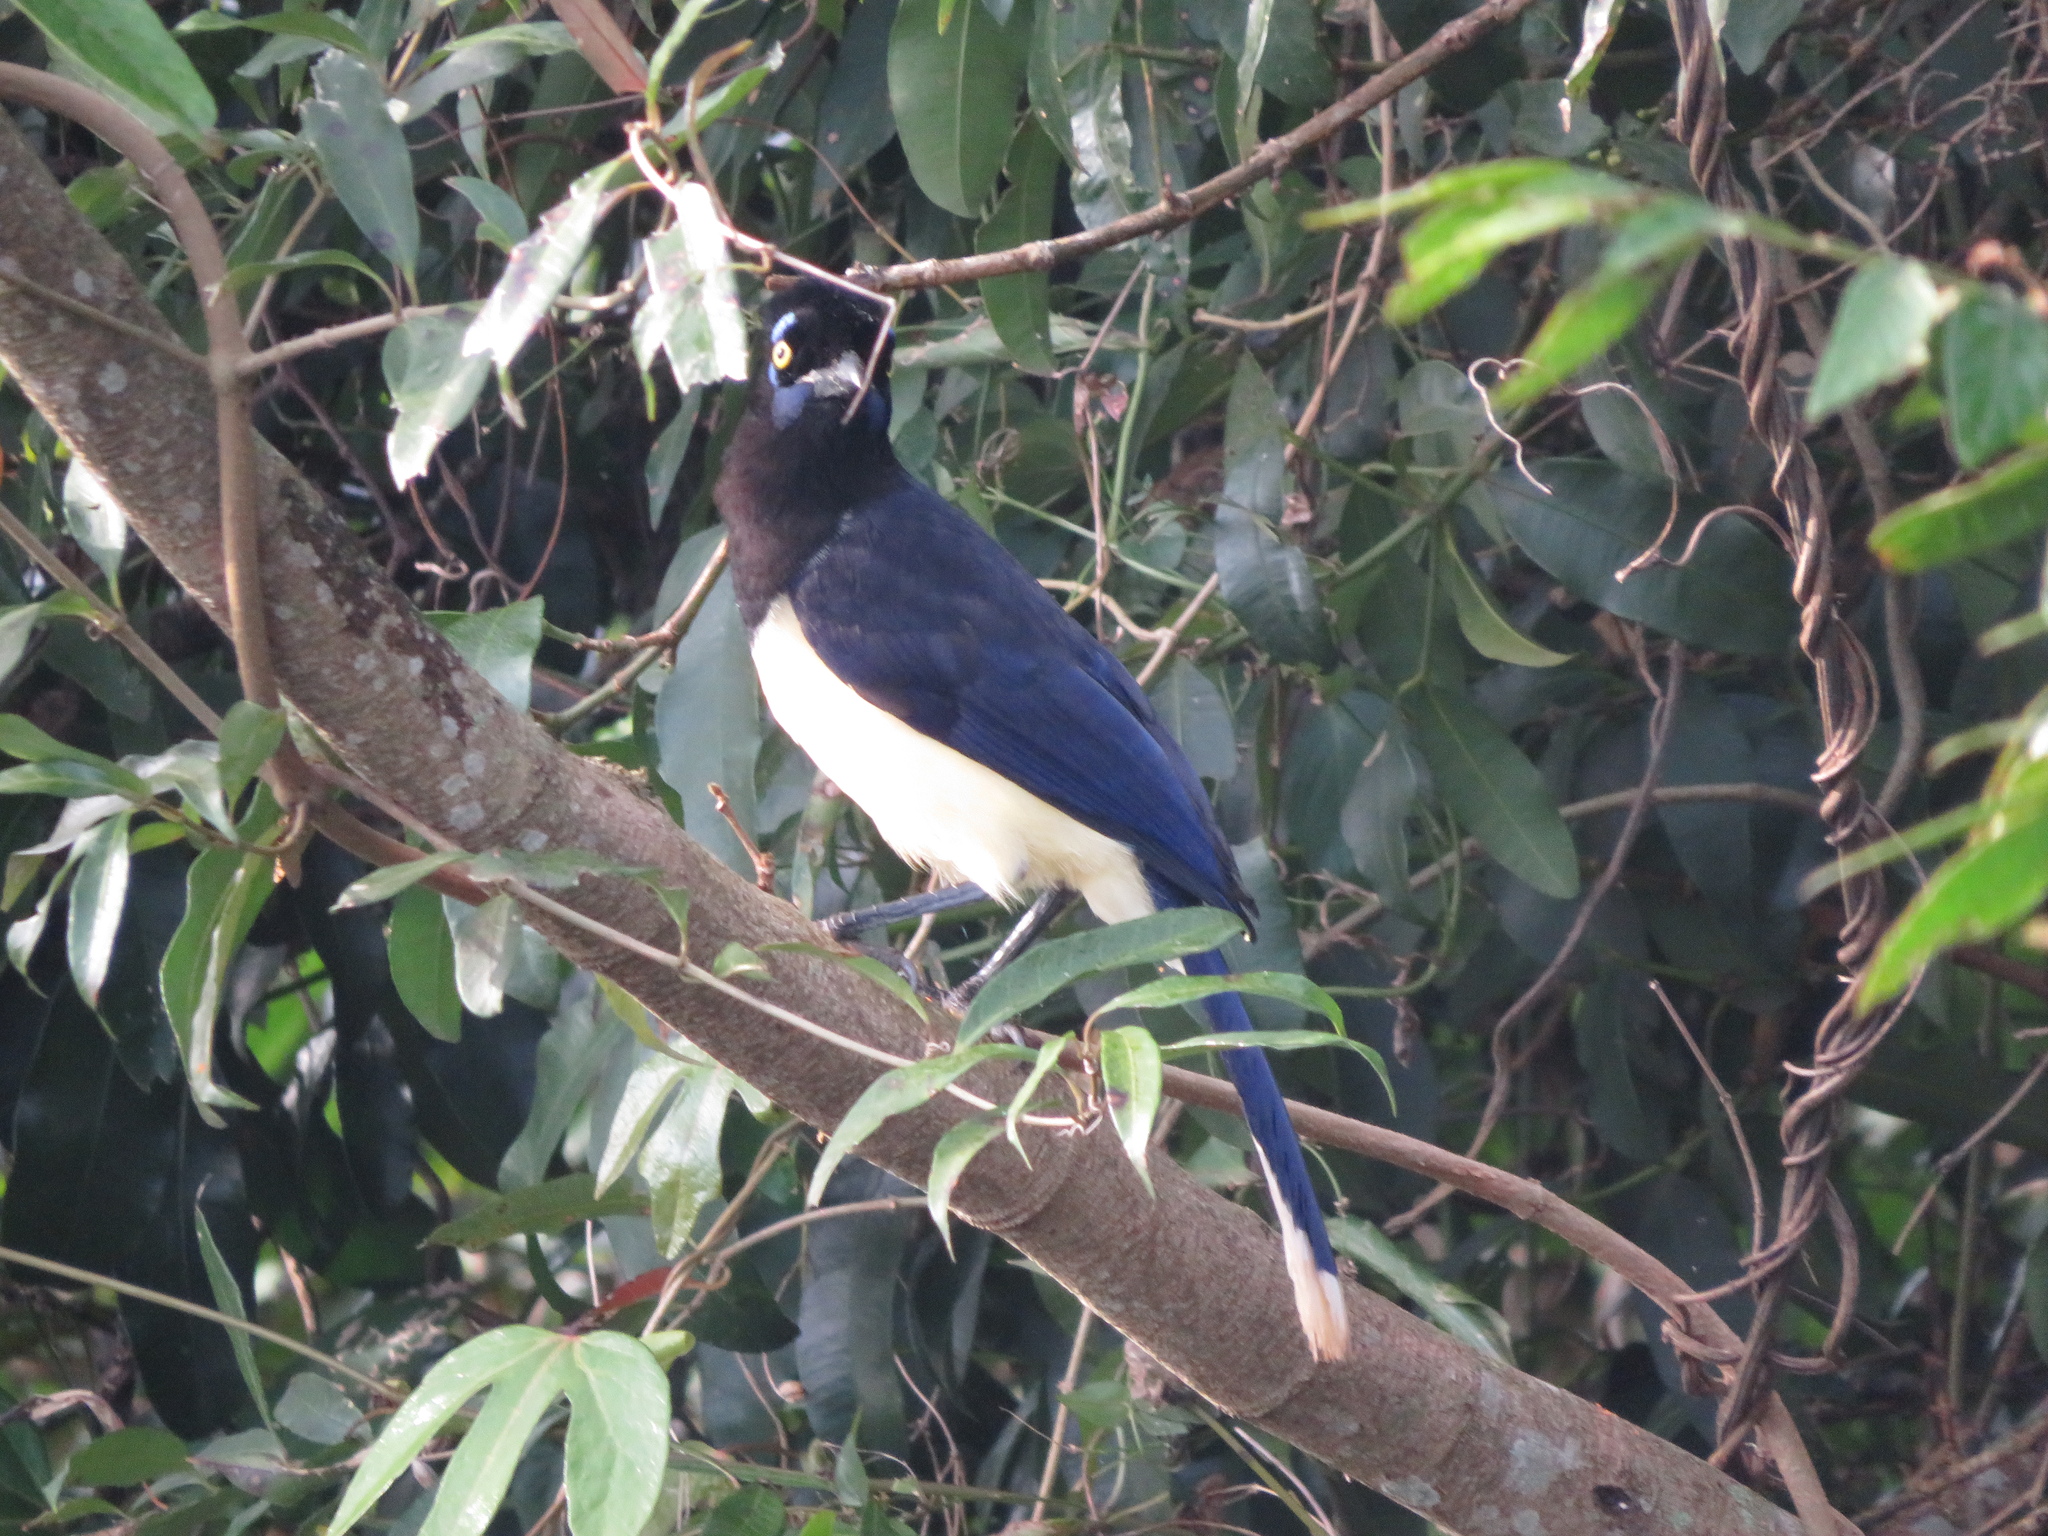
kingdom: Animalia
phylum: Chordata
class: Aves
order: Passeriformes
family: Corvidae
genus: Cyanocorax
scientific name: Cyanocorax chrysops
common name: Plush-crested jay
